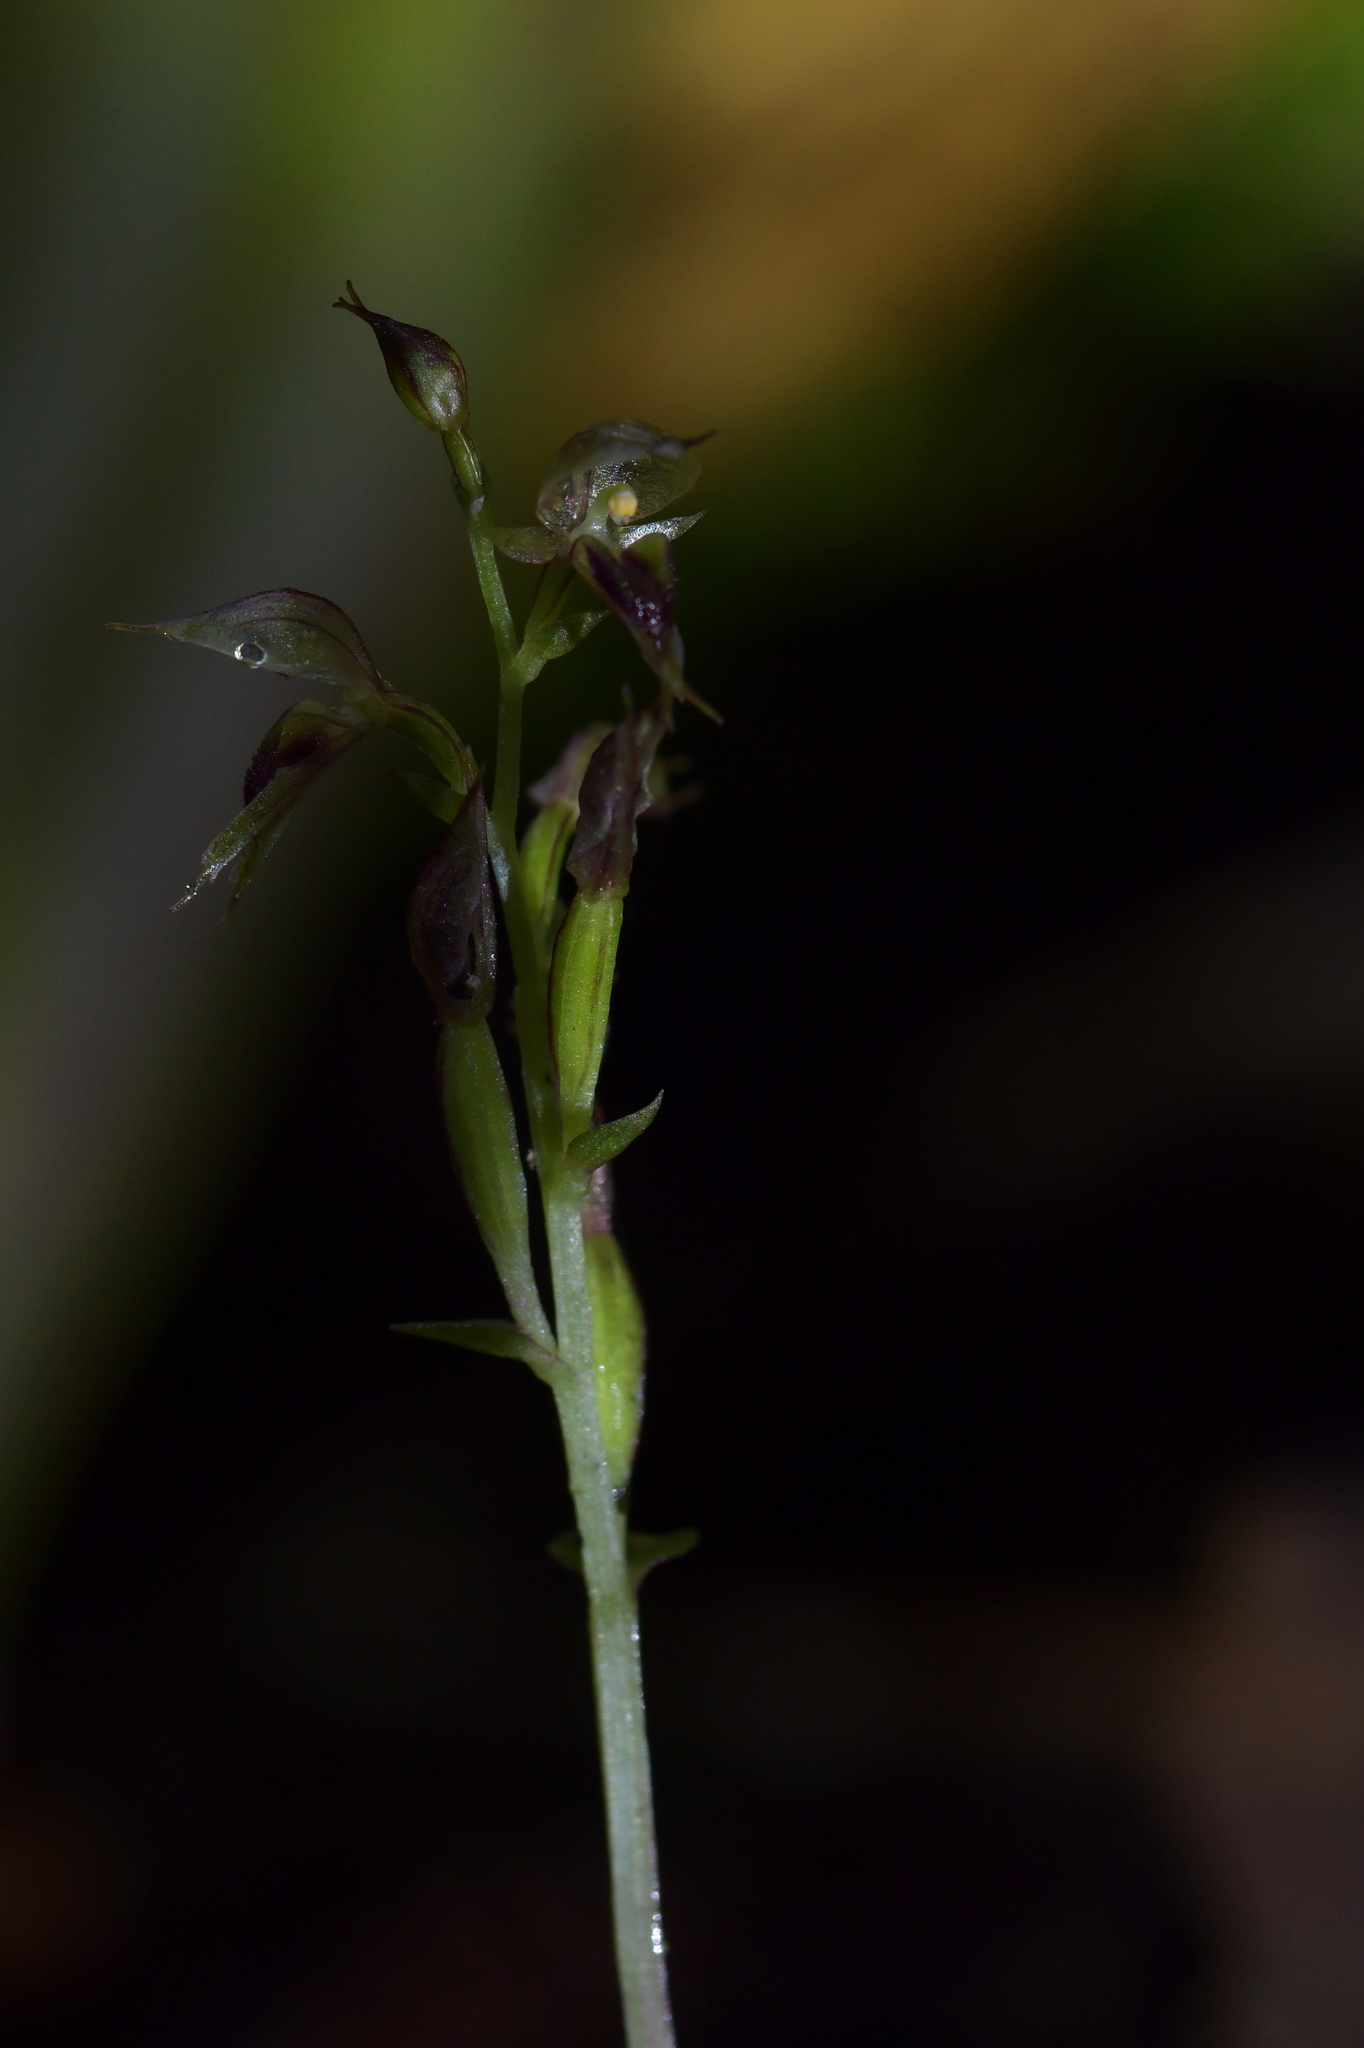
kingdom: Plantae
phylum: Tracheophyta
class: Liliopsida
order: Asparagales
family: Orchidaceae
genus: Acianthus
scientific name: Acianthus sinclairii
